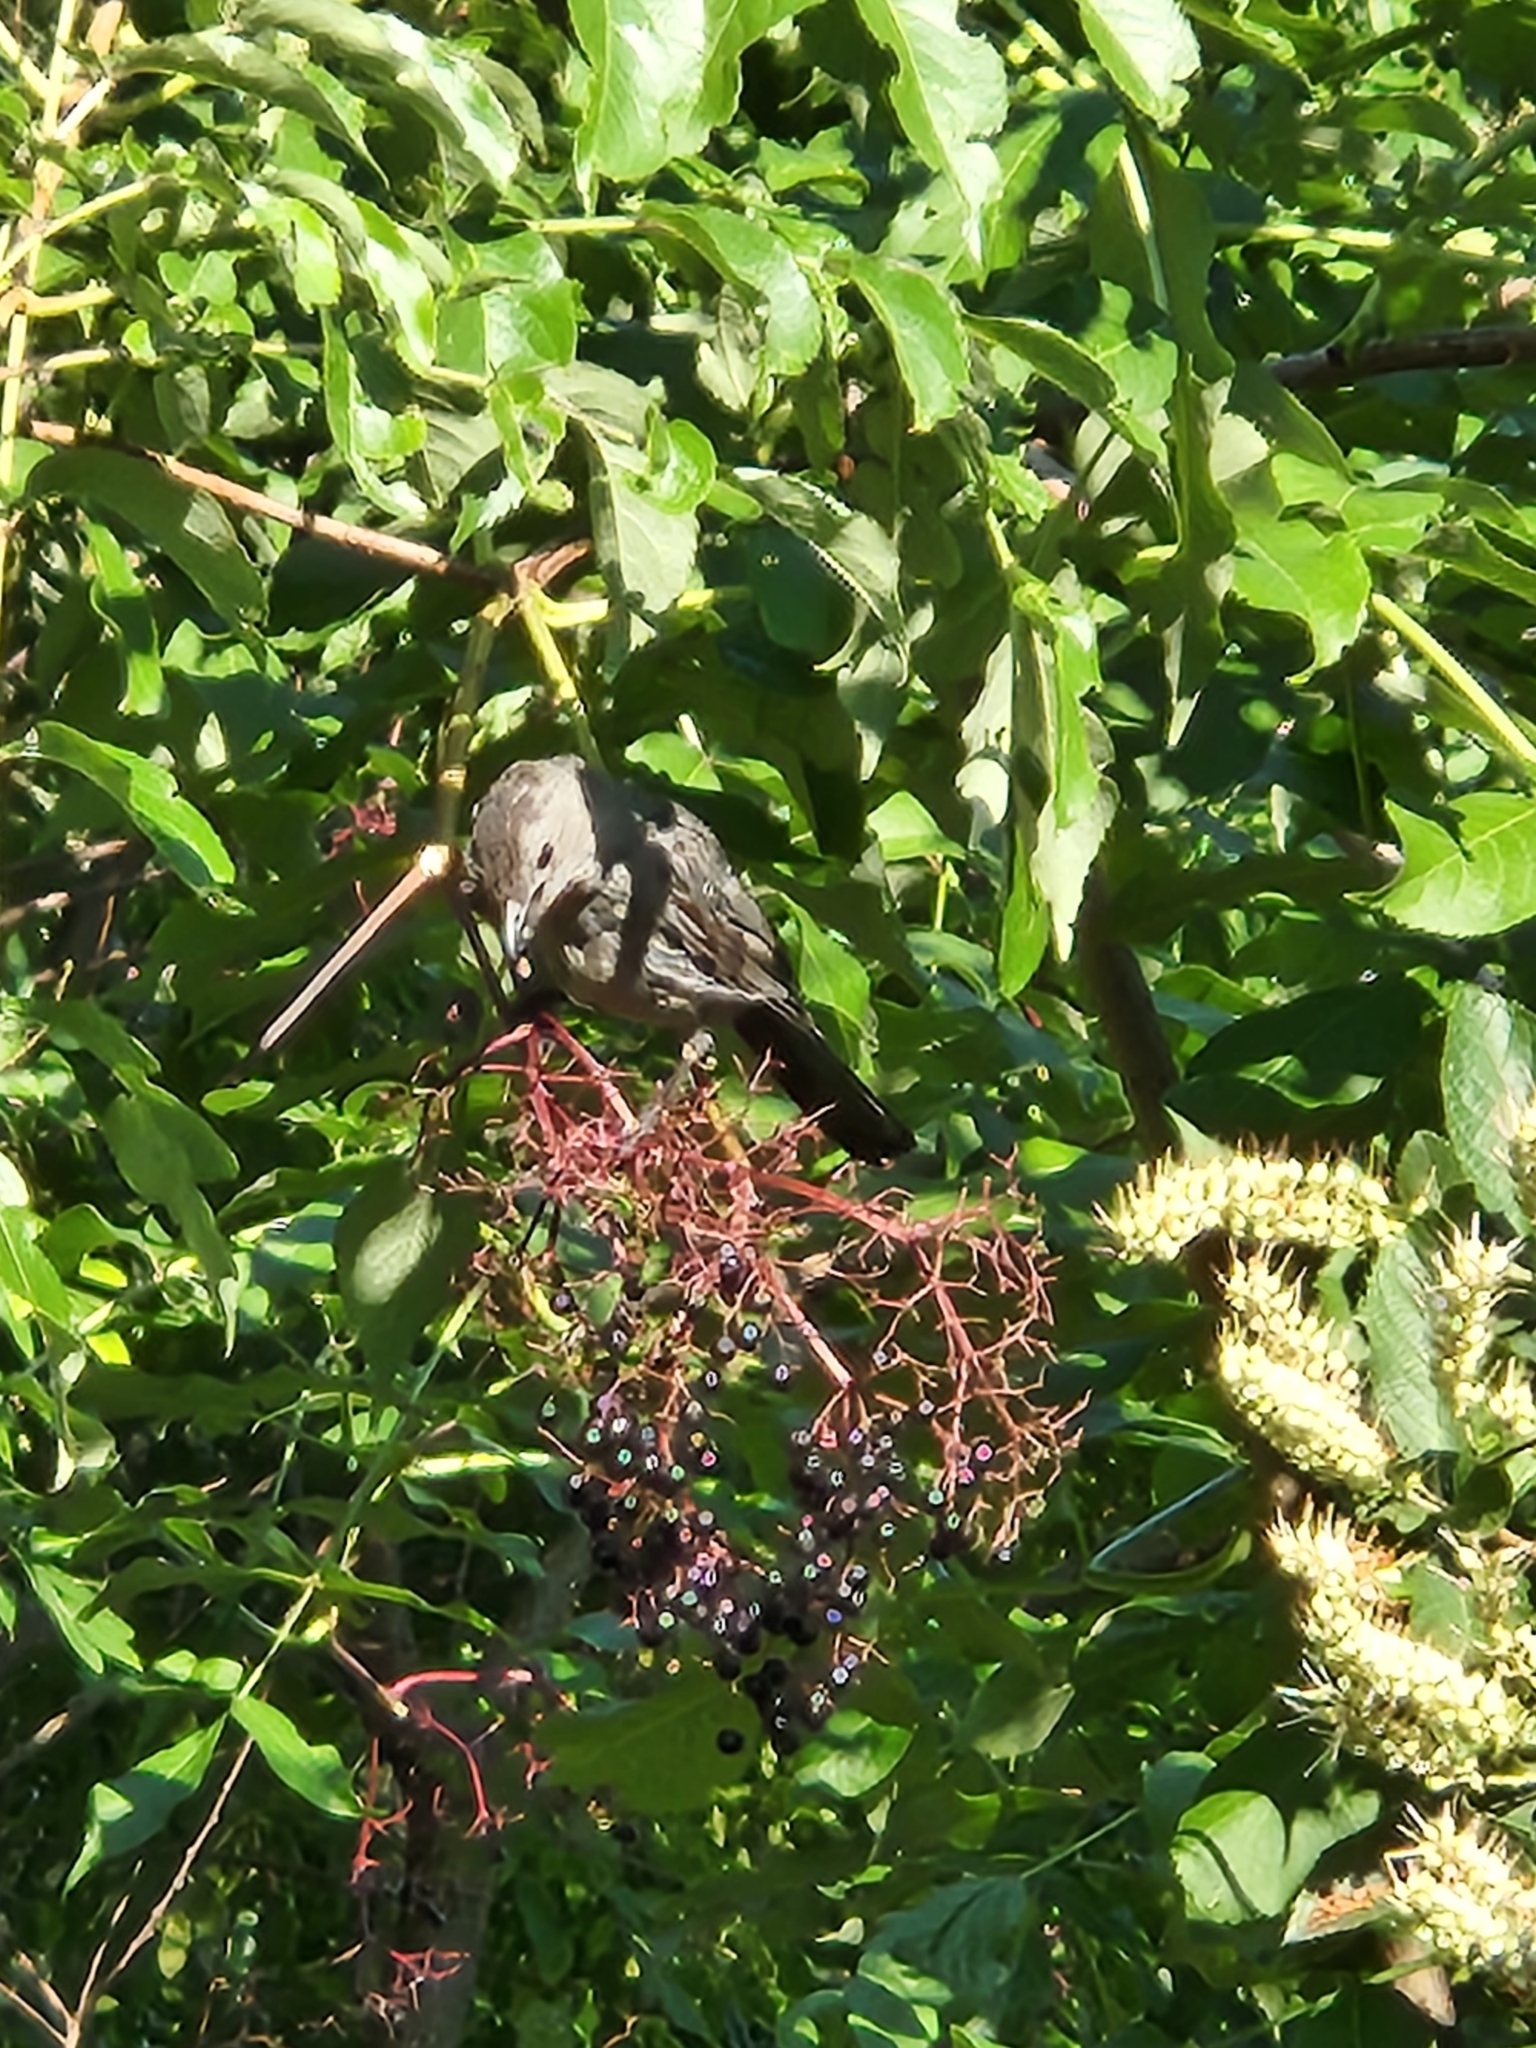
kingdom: Animalia
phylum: Chordata
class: Aves
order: Passeriformes
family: Mimidae
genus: Dumetella
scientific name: Dumetella carolinensis
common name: Gray catbird
